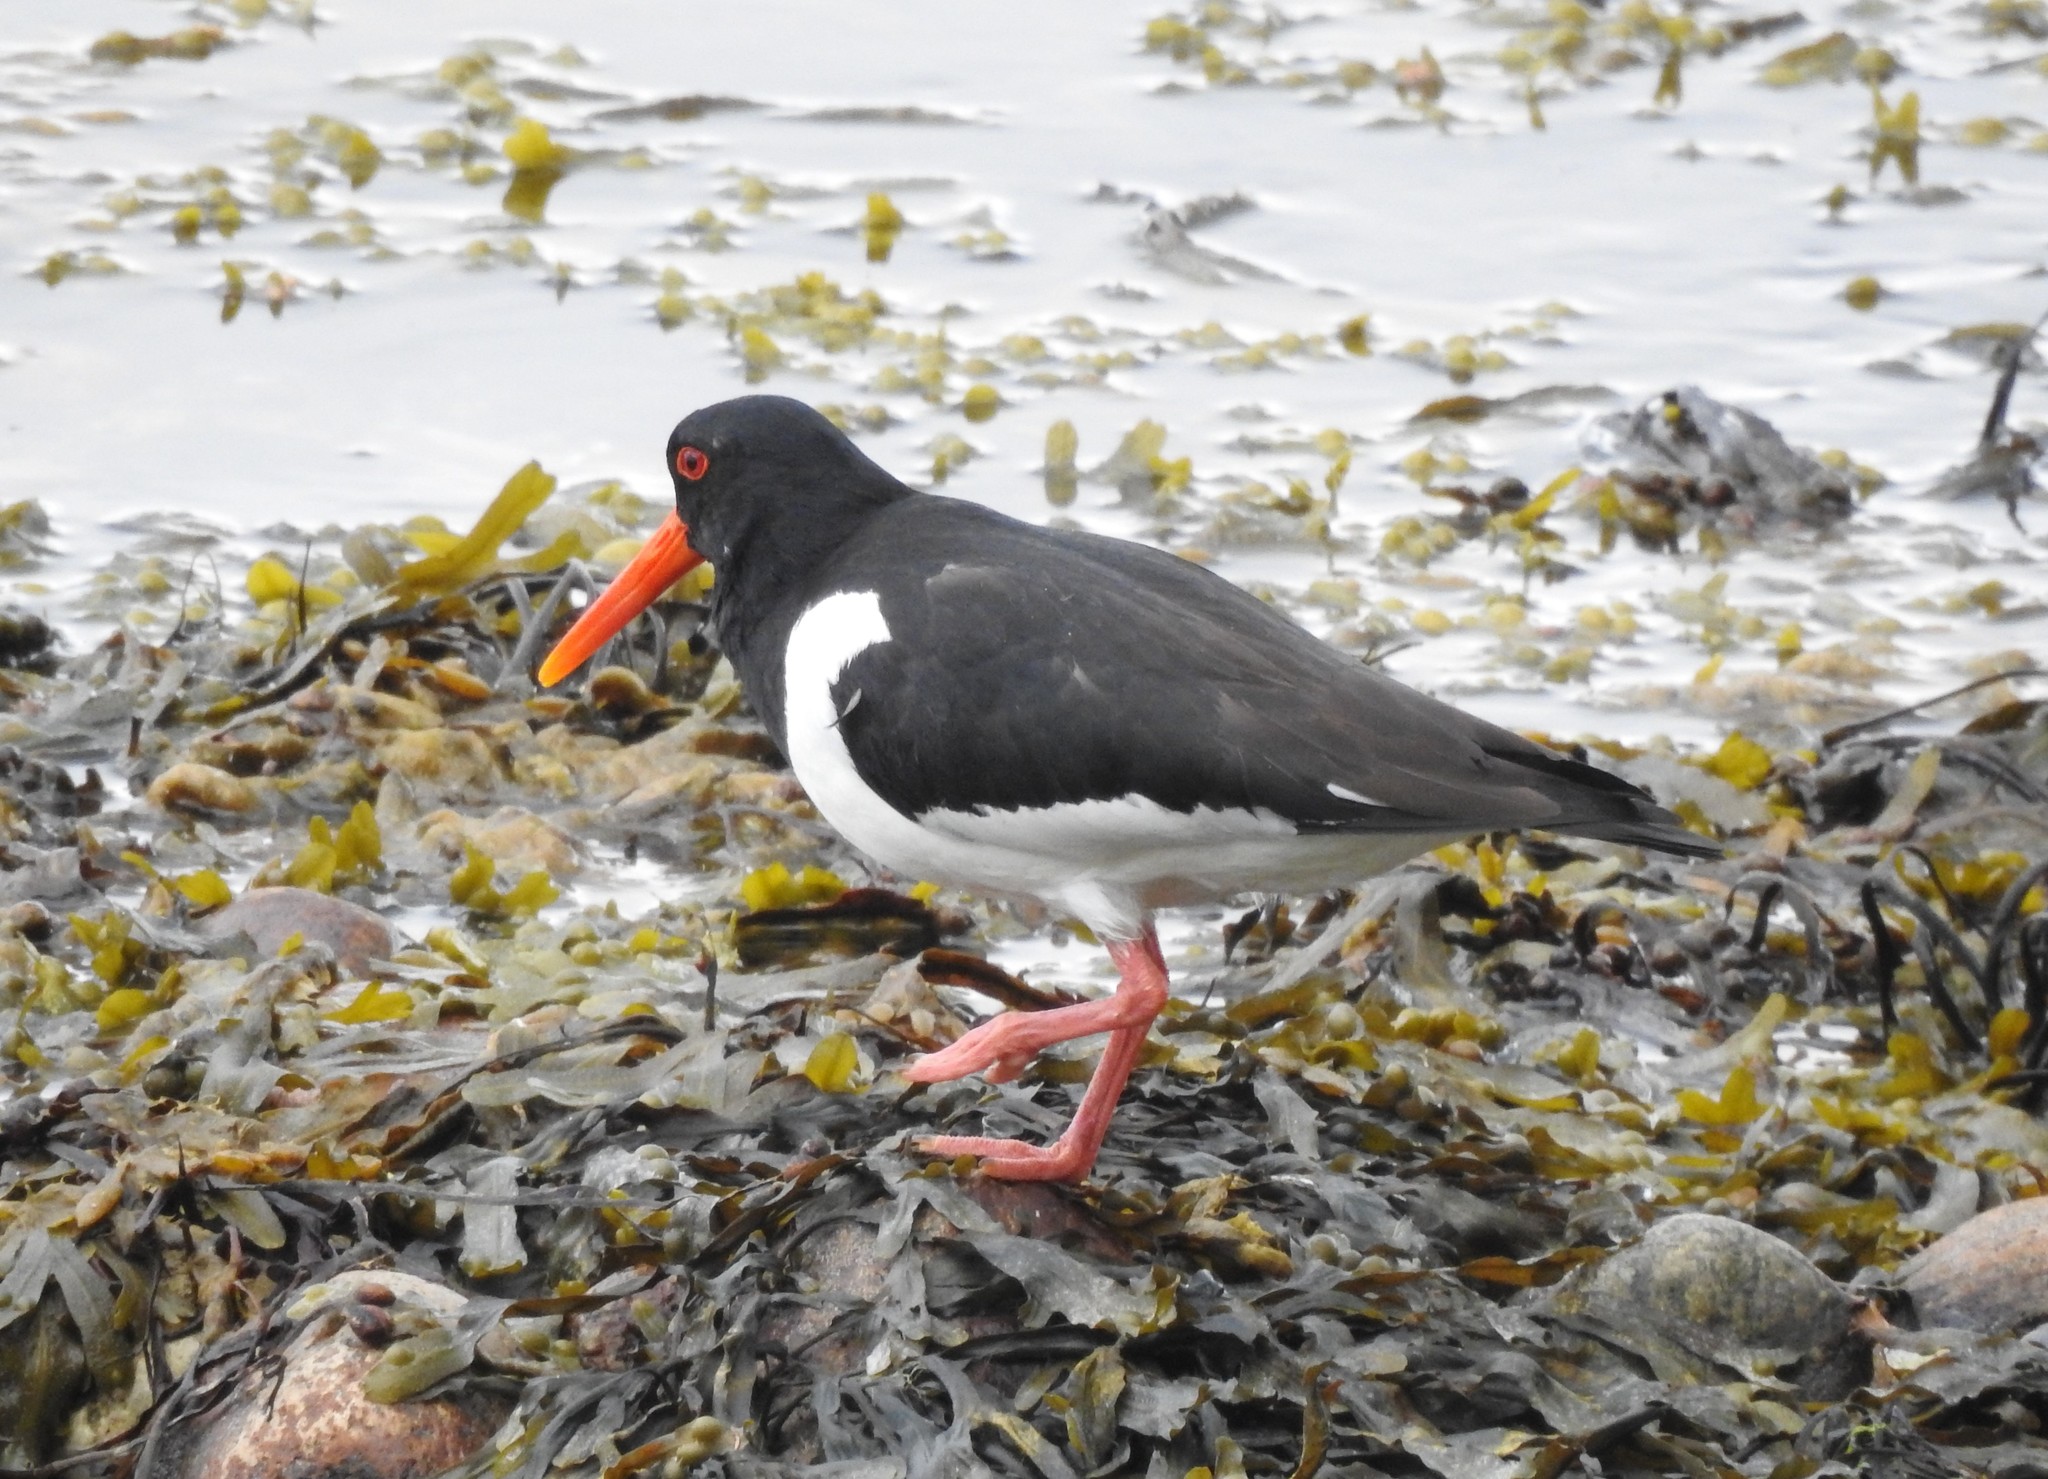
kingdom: Animalia
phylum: Chordata
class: Aves
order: Charadriiformes
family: Haematopodidae
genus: Haematopus
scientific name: Haematopus ostralegus
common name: Eurasian oystercatcher
